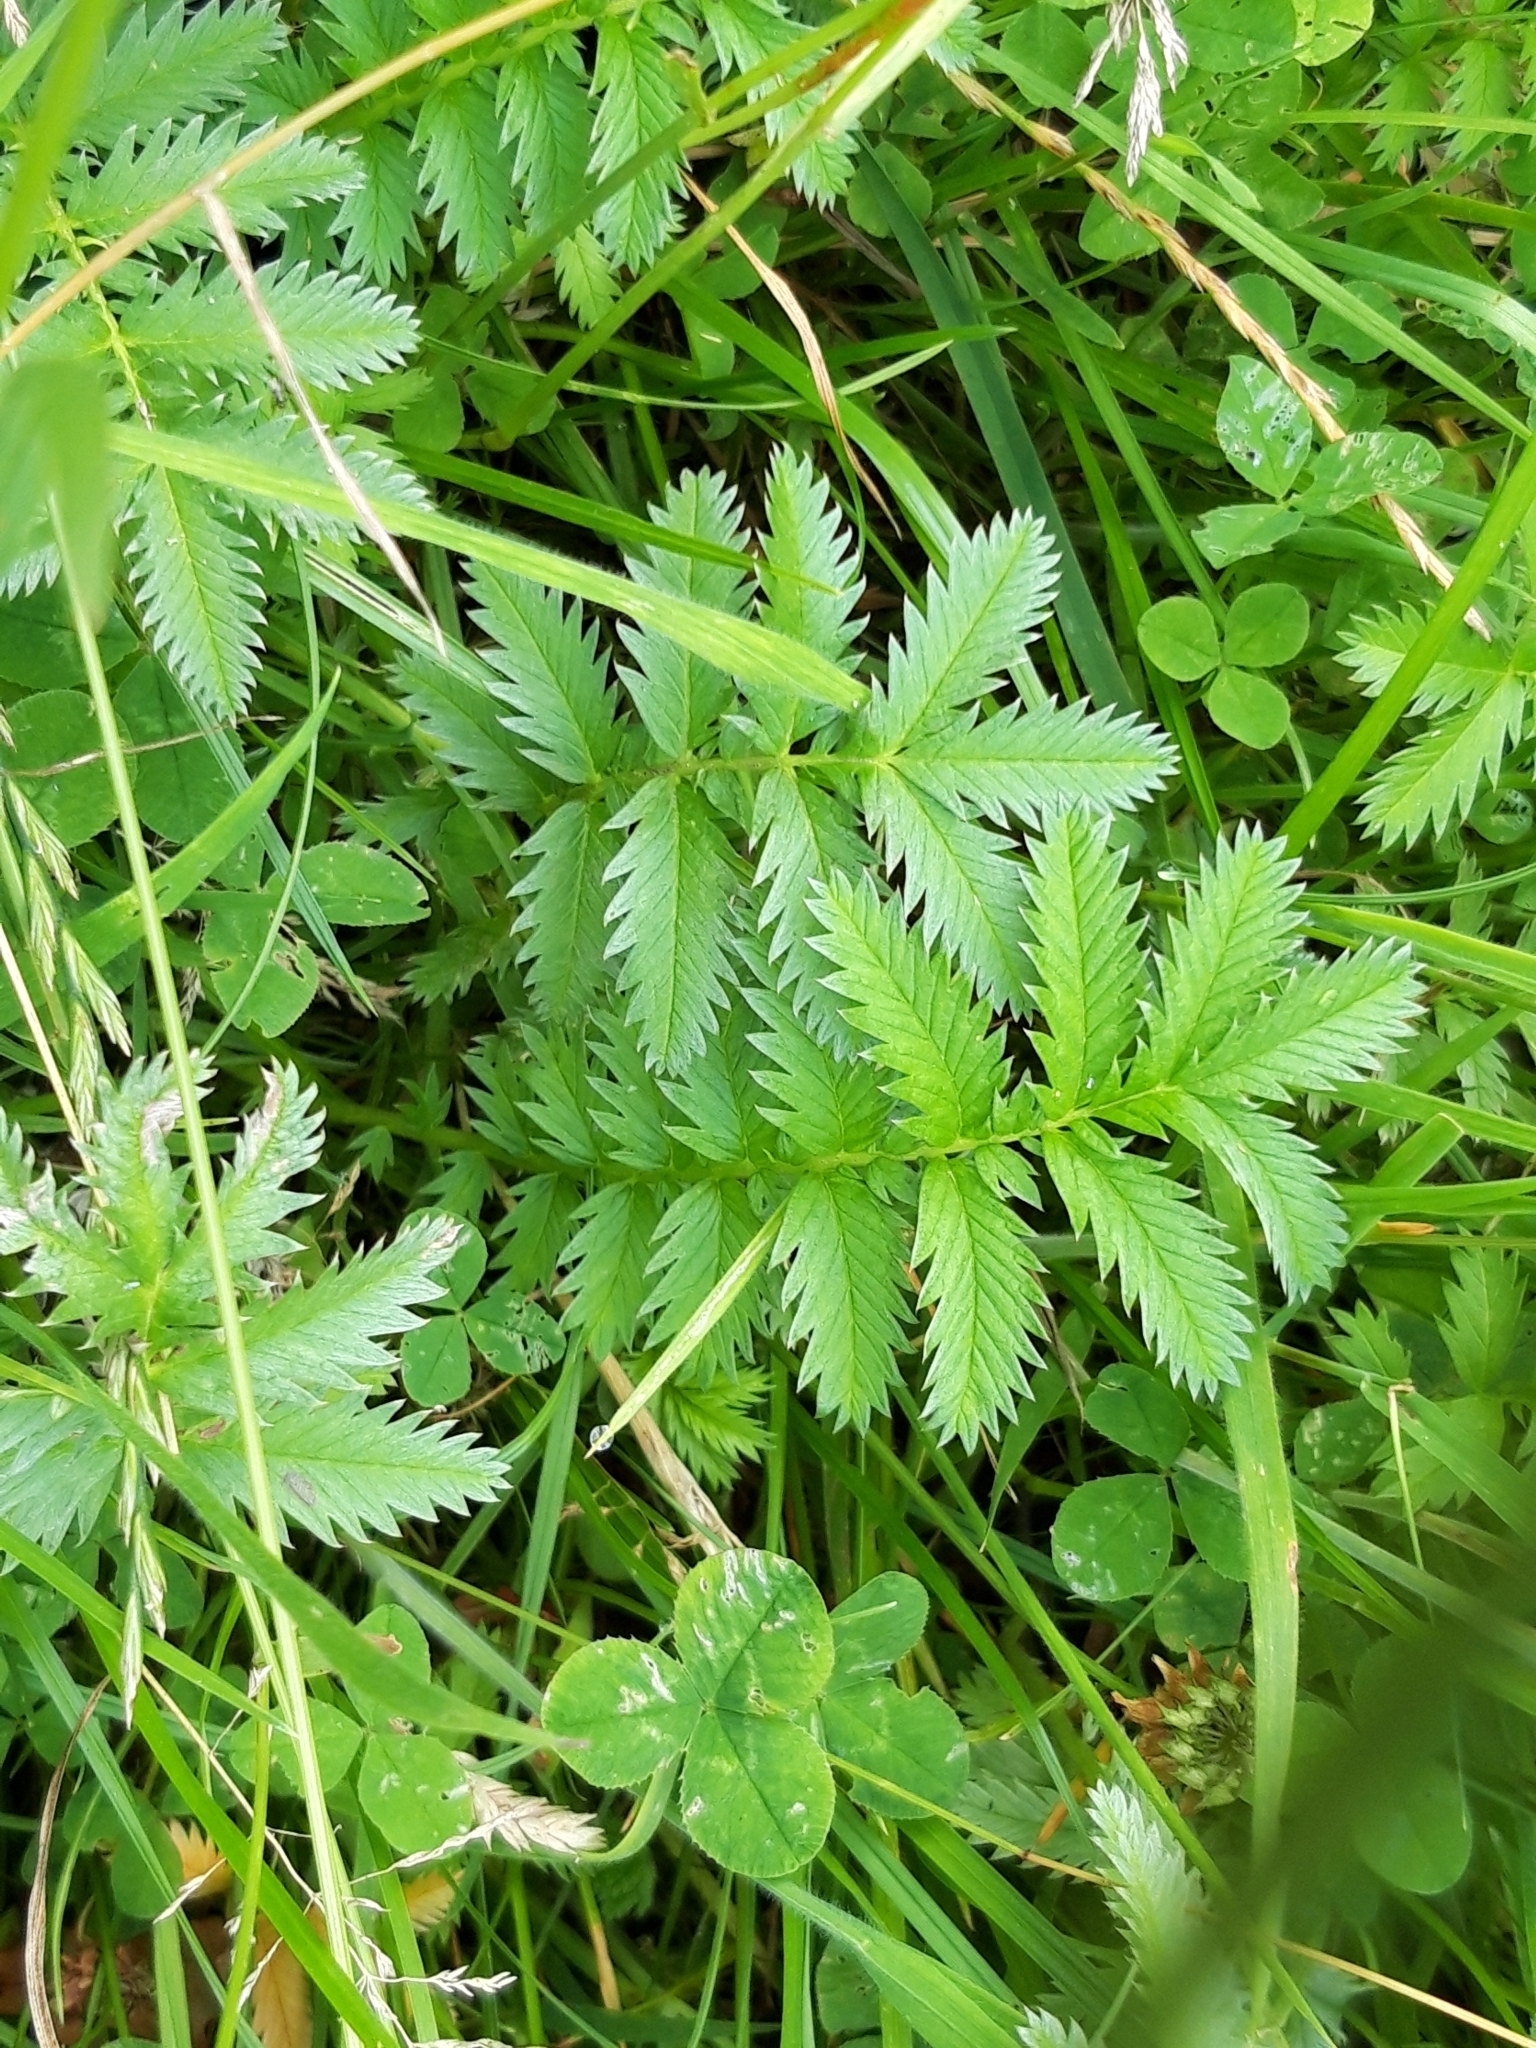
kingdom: Plantae
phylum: Tracheophyta
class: Magnoliopsida
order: Rosales
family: Rosaceae
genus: Argentina
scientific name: Argentina anserina
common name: Common silverweed
